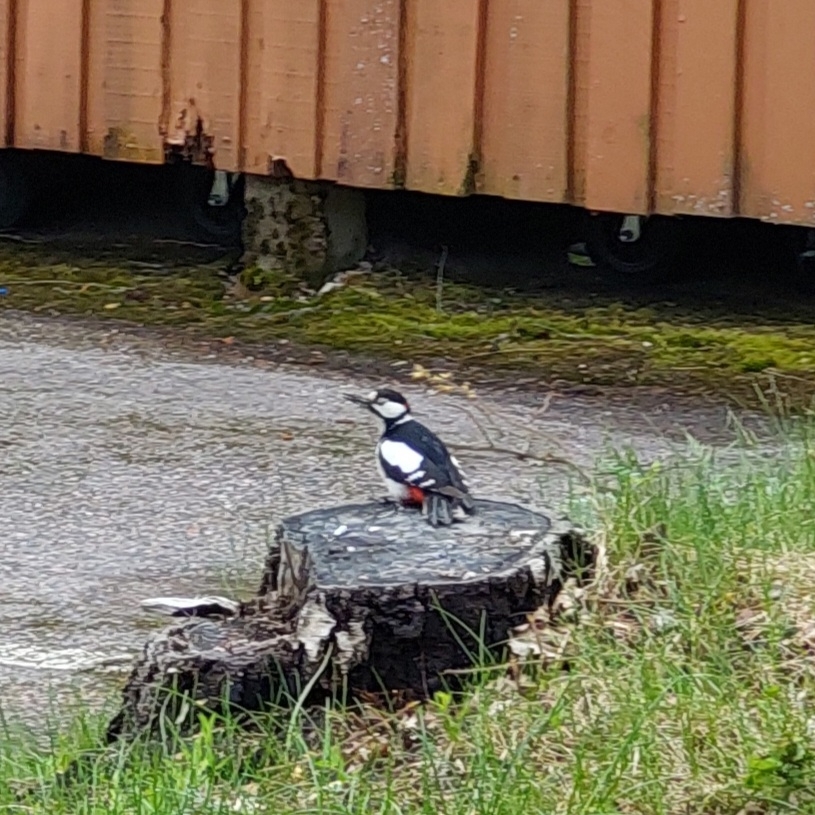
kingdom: Animalia
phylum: Chordata
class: Aves
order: Piciformes
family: Picidae
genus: Dendrocopos
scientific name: Dendrocopos major
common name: Great spotted woodpecker
